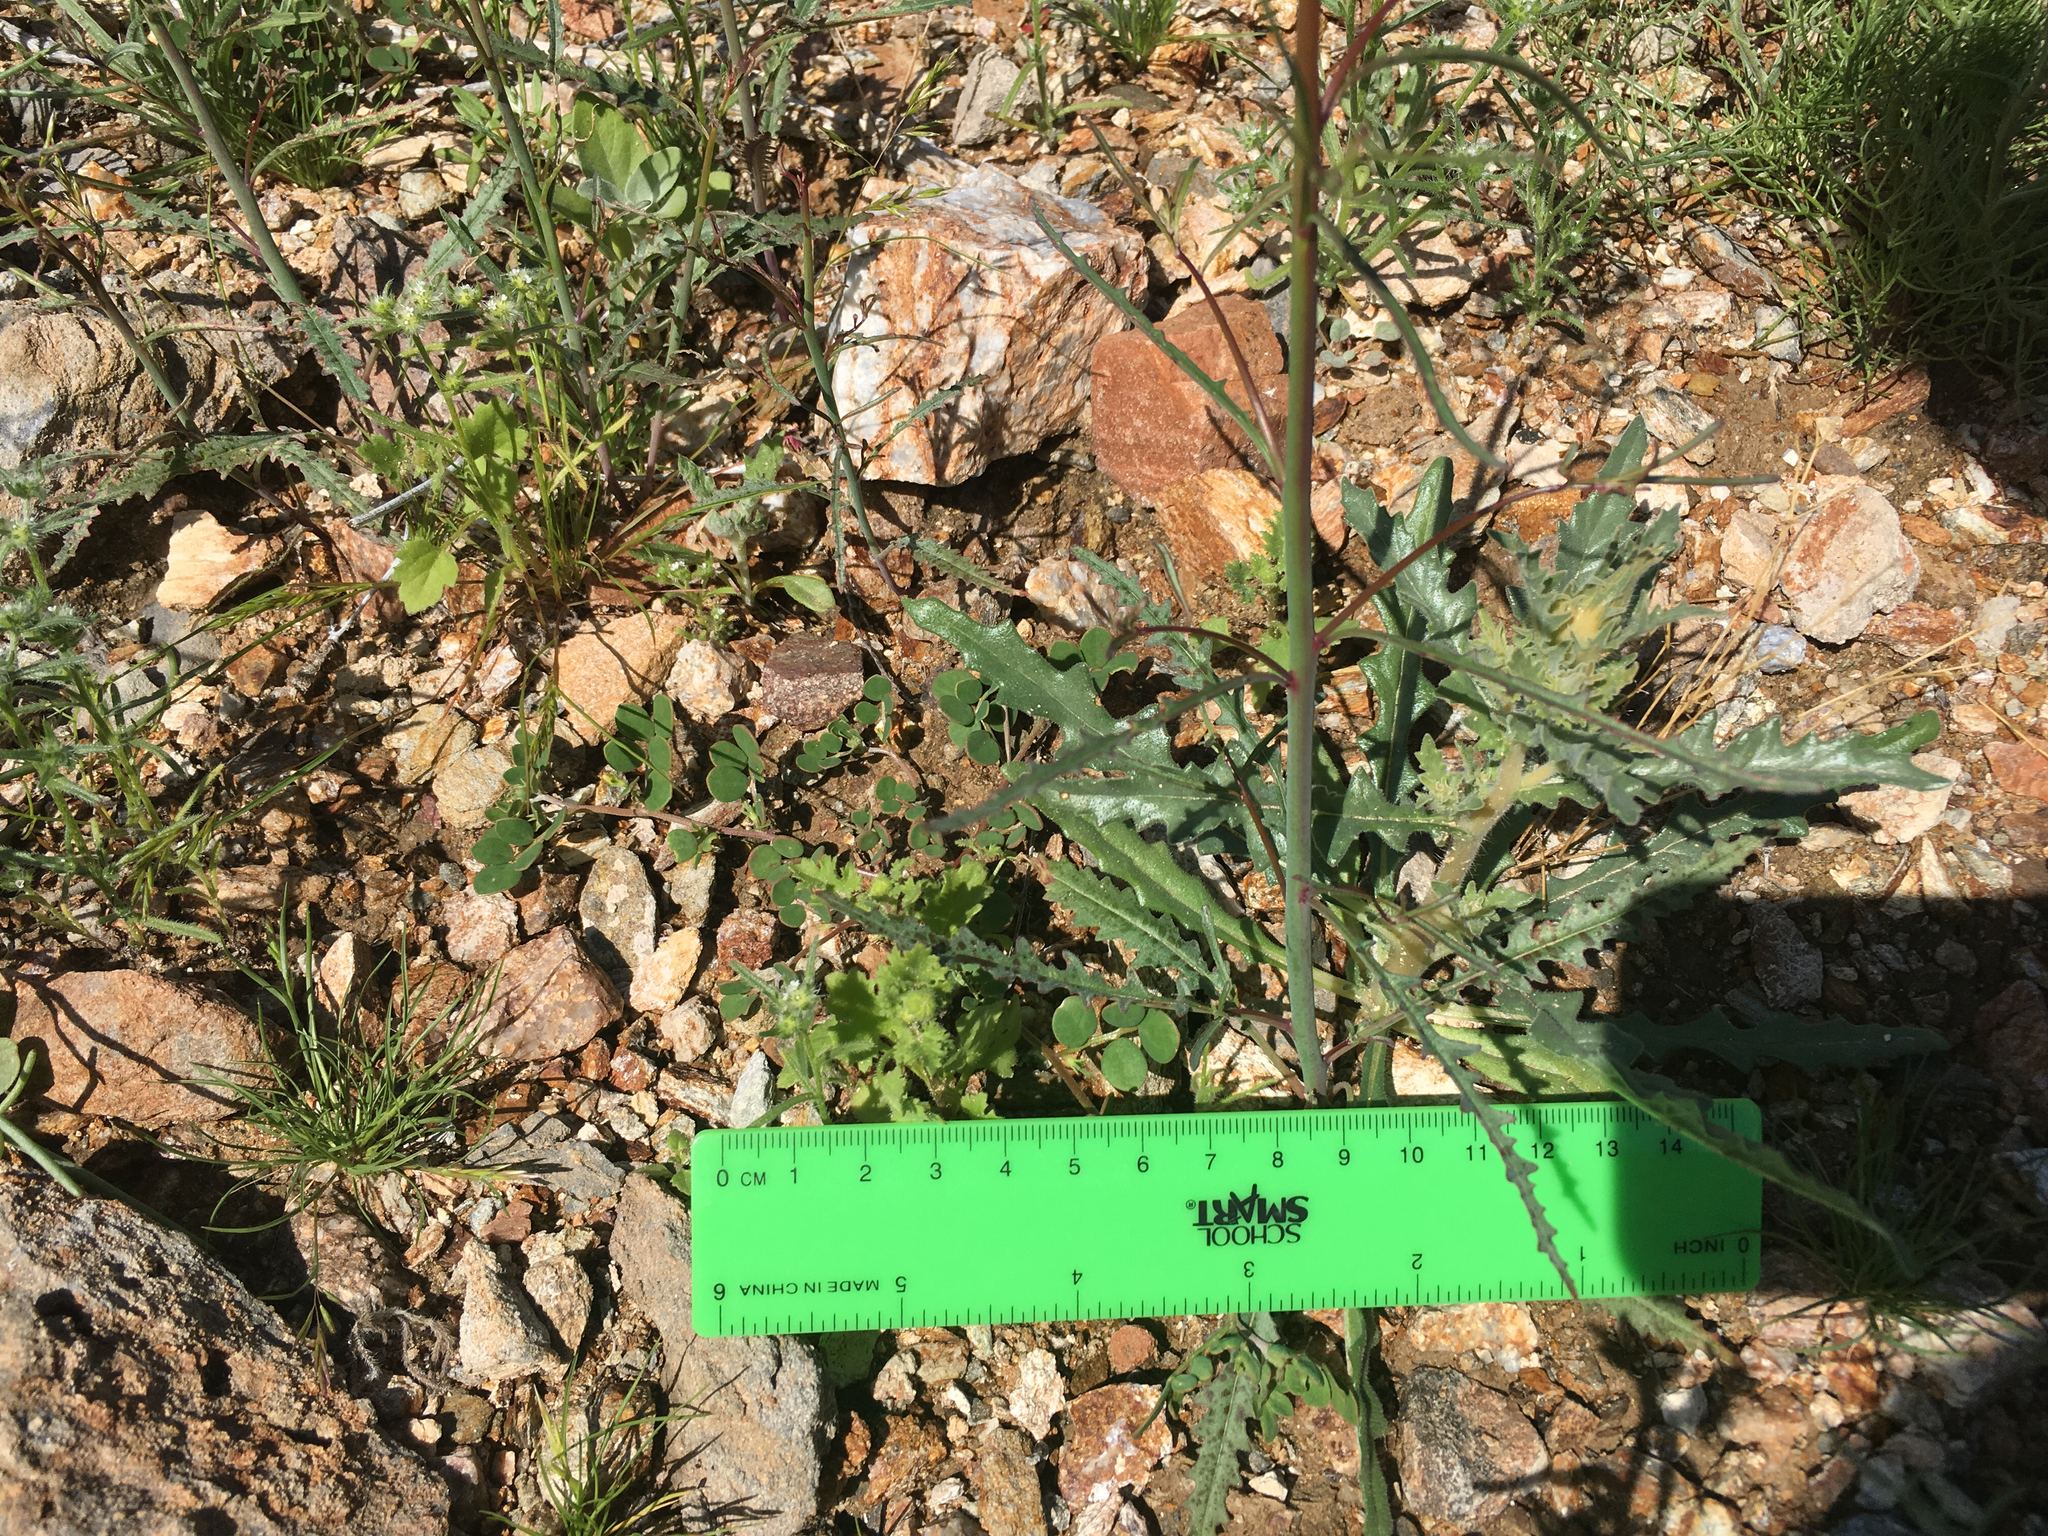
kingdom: Plantae
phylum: Tracheophyta
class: Magnoliopsida
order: Myrtales
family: Onagraceae
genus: Eulobus
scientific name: Eulobus californicus
